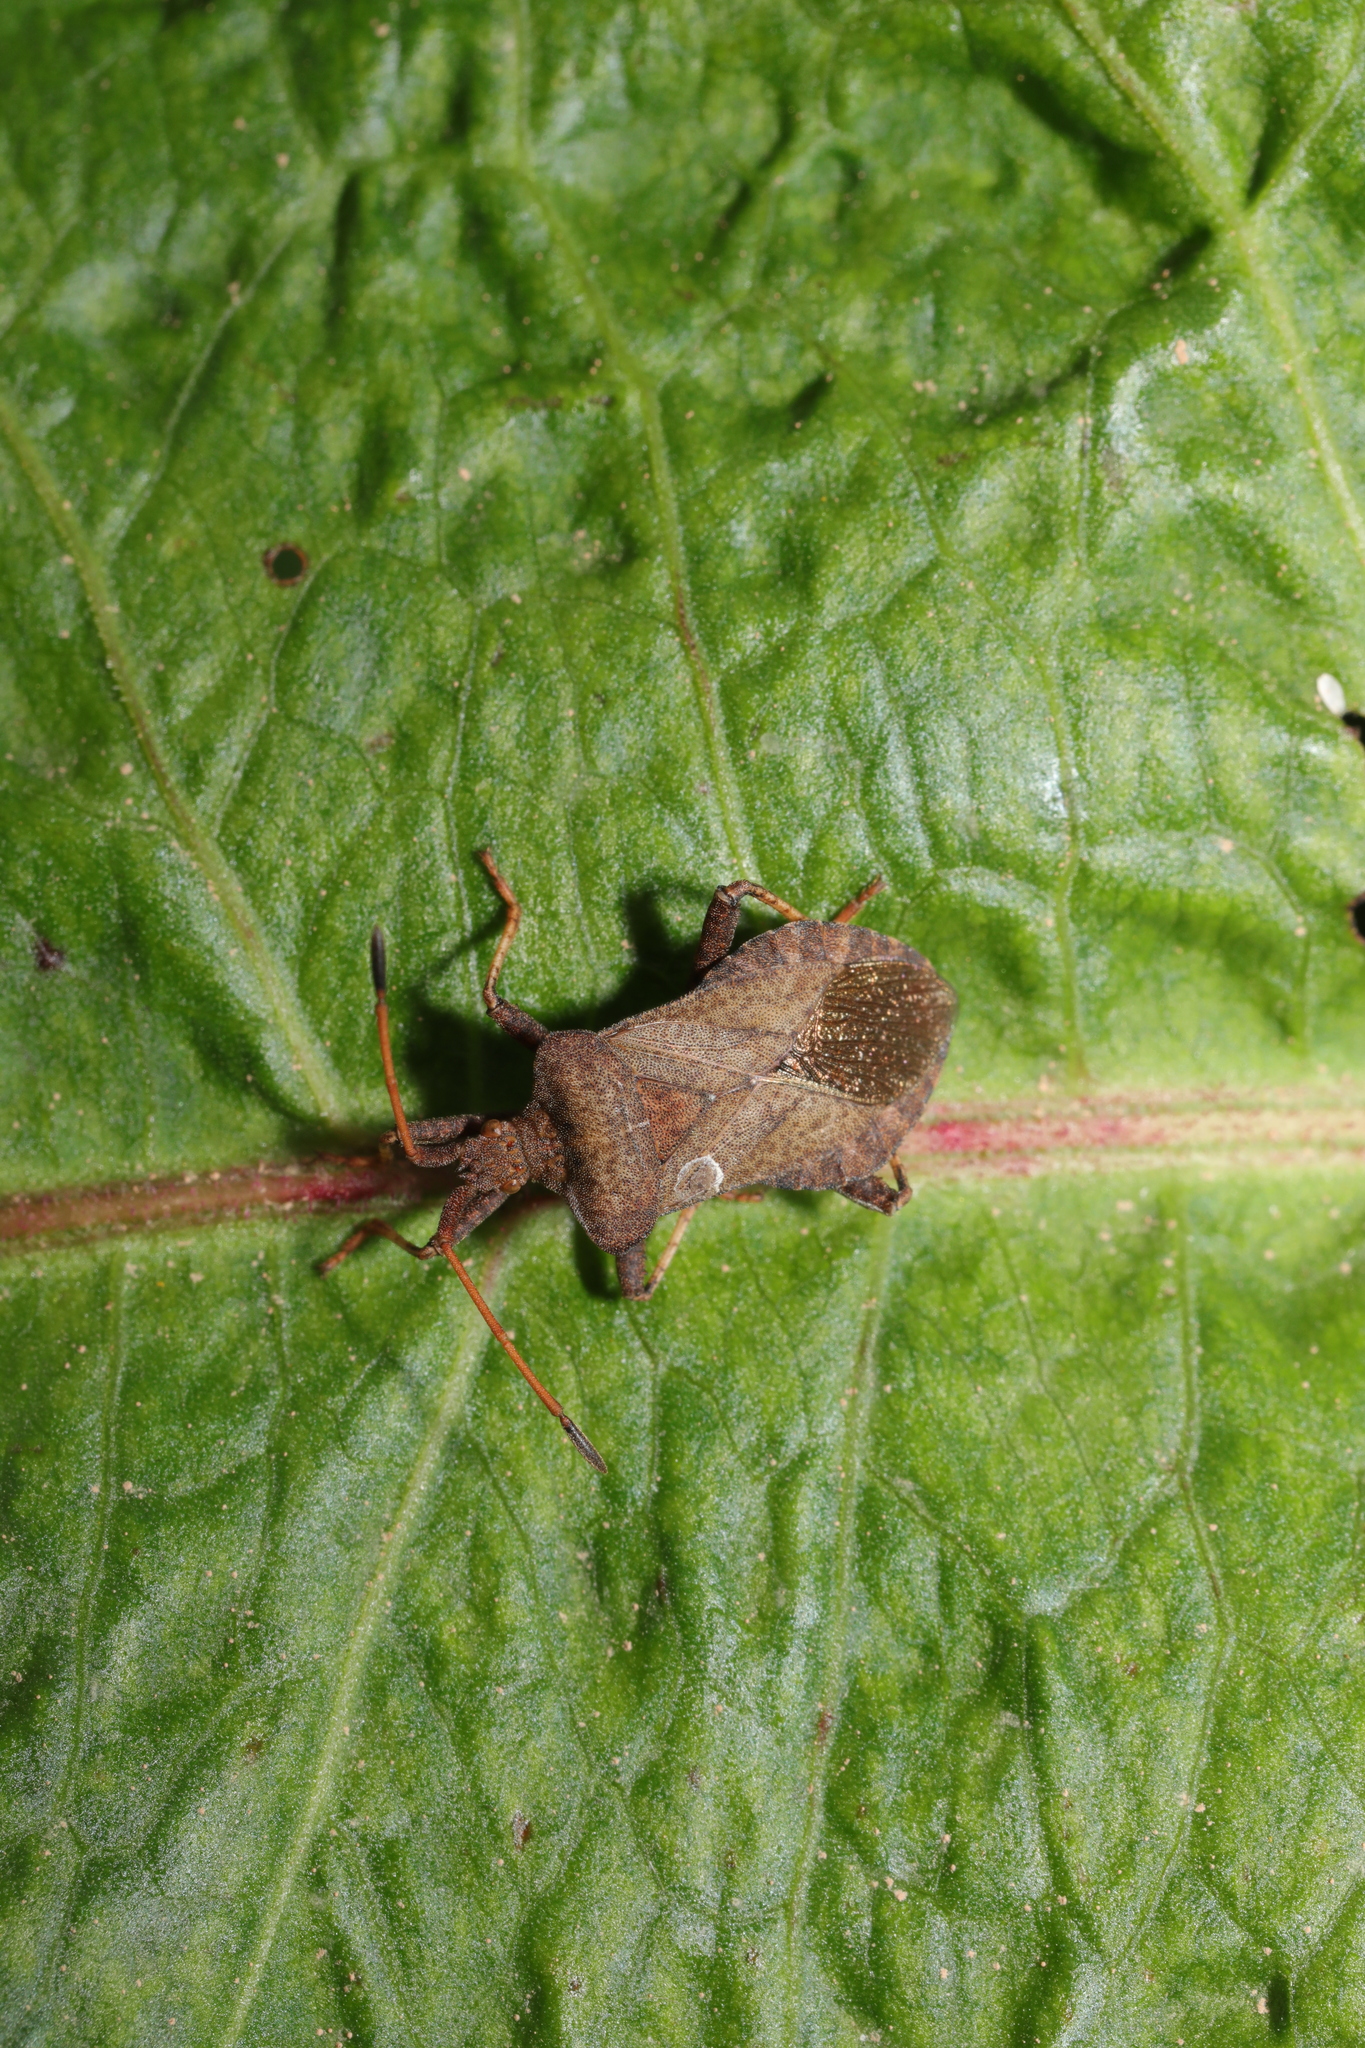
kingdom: Animalia
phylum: Arthropoda
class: Insecta
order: Hemiptera
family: Coreidae
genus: Coreus
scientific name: Coreus marginatus
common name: Dock bug
